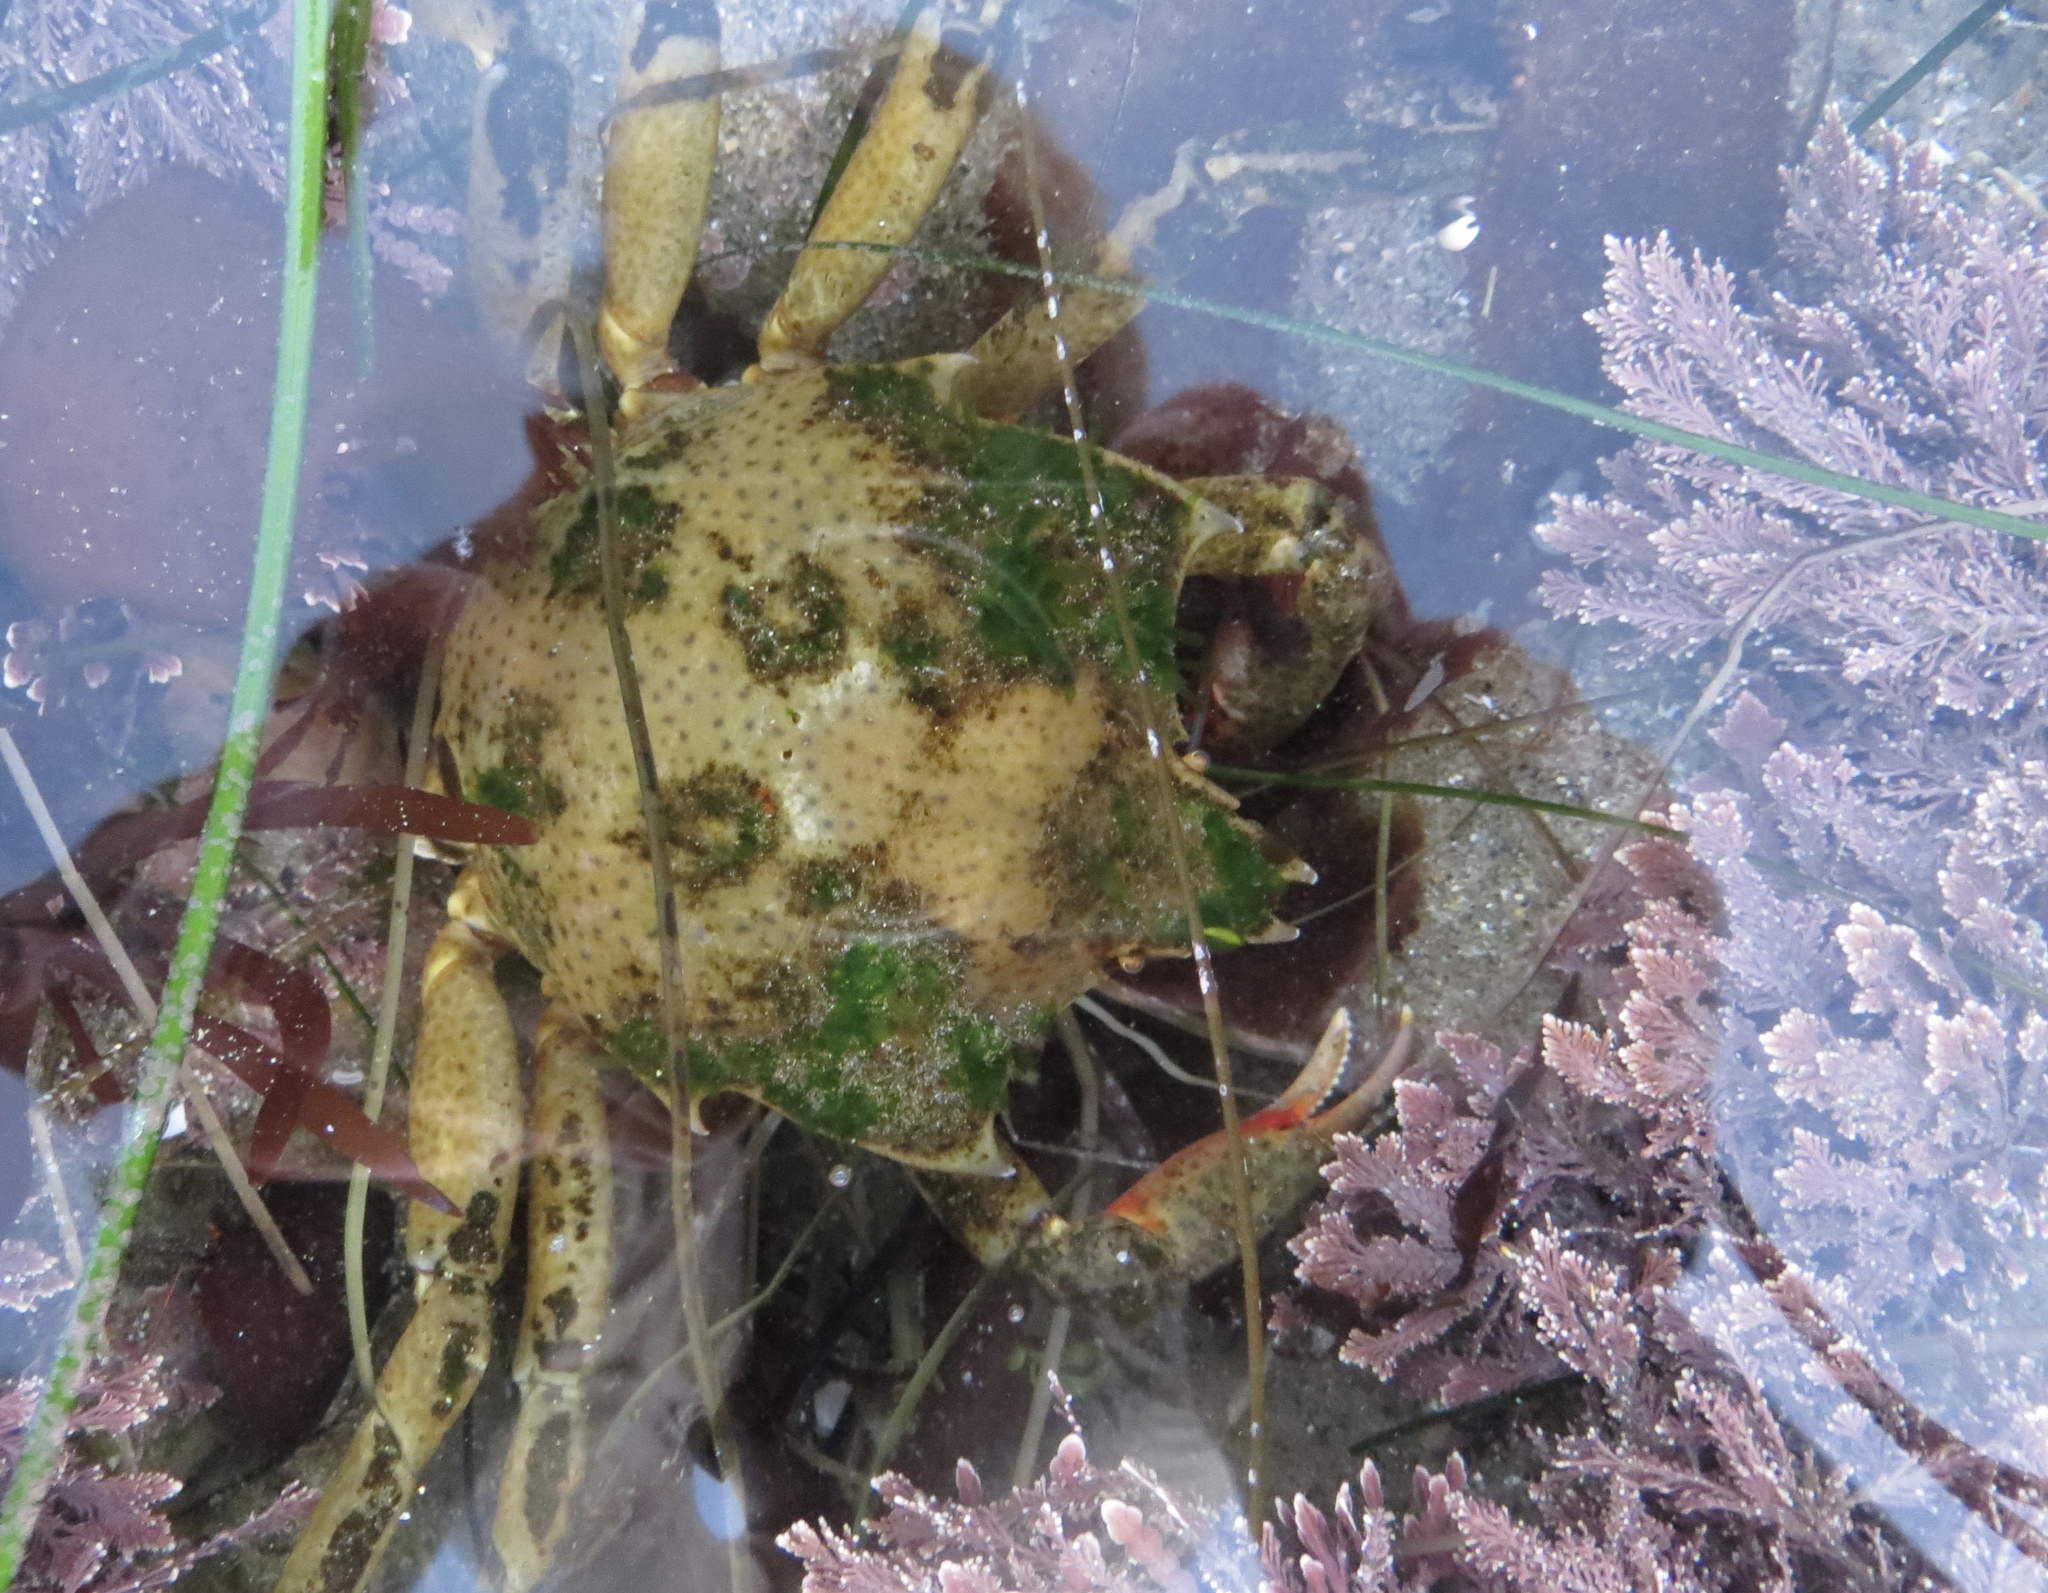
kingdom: Animalia
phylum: Arthropoda
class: Malacostraca
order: Decapoda
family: Epialtidae
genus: Pugettia
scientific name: Pugettia producta
